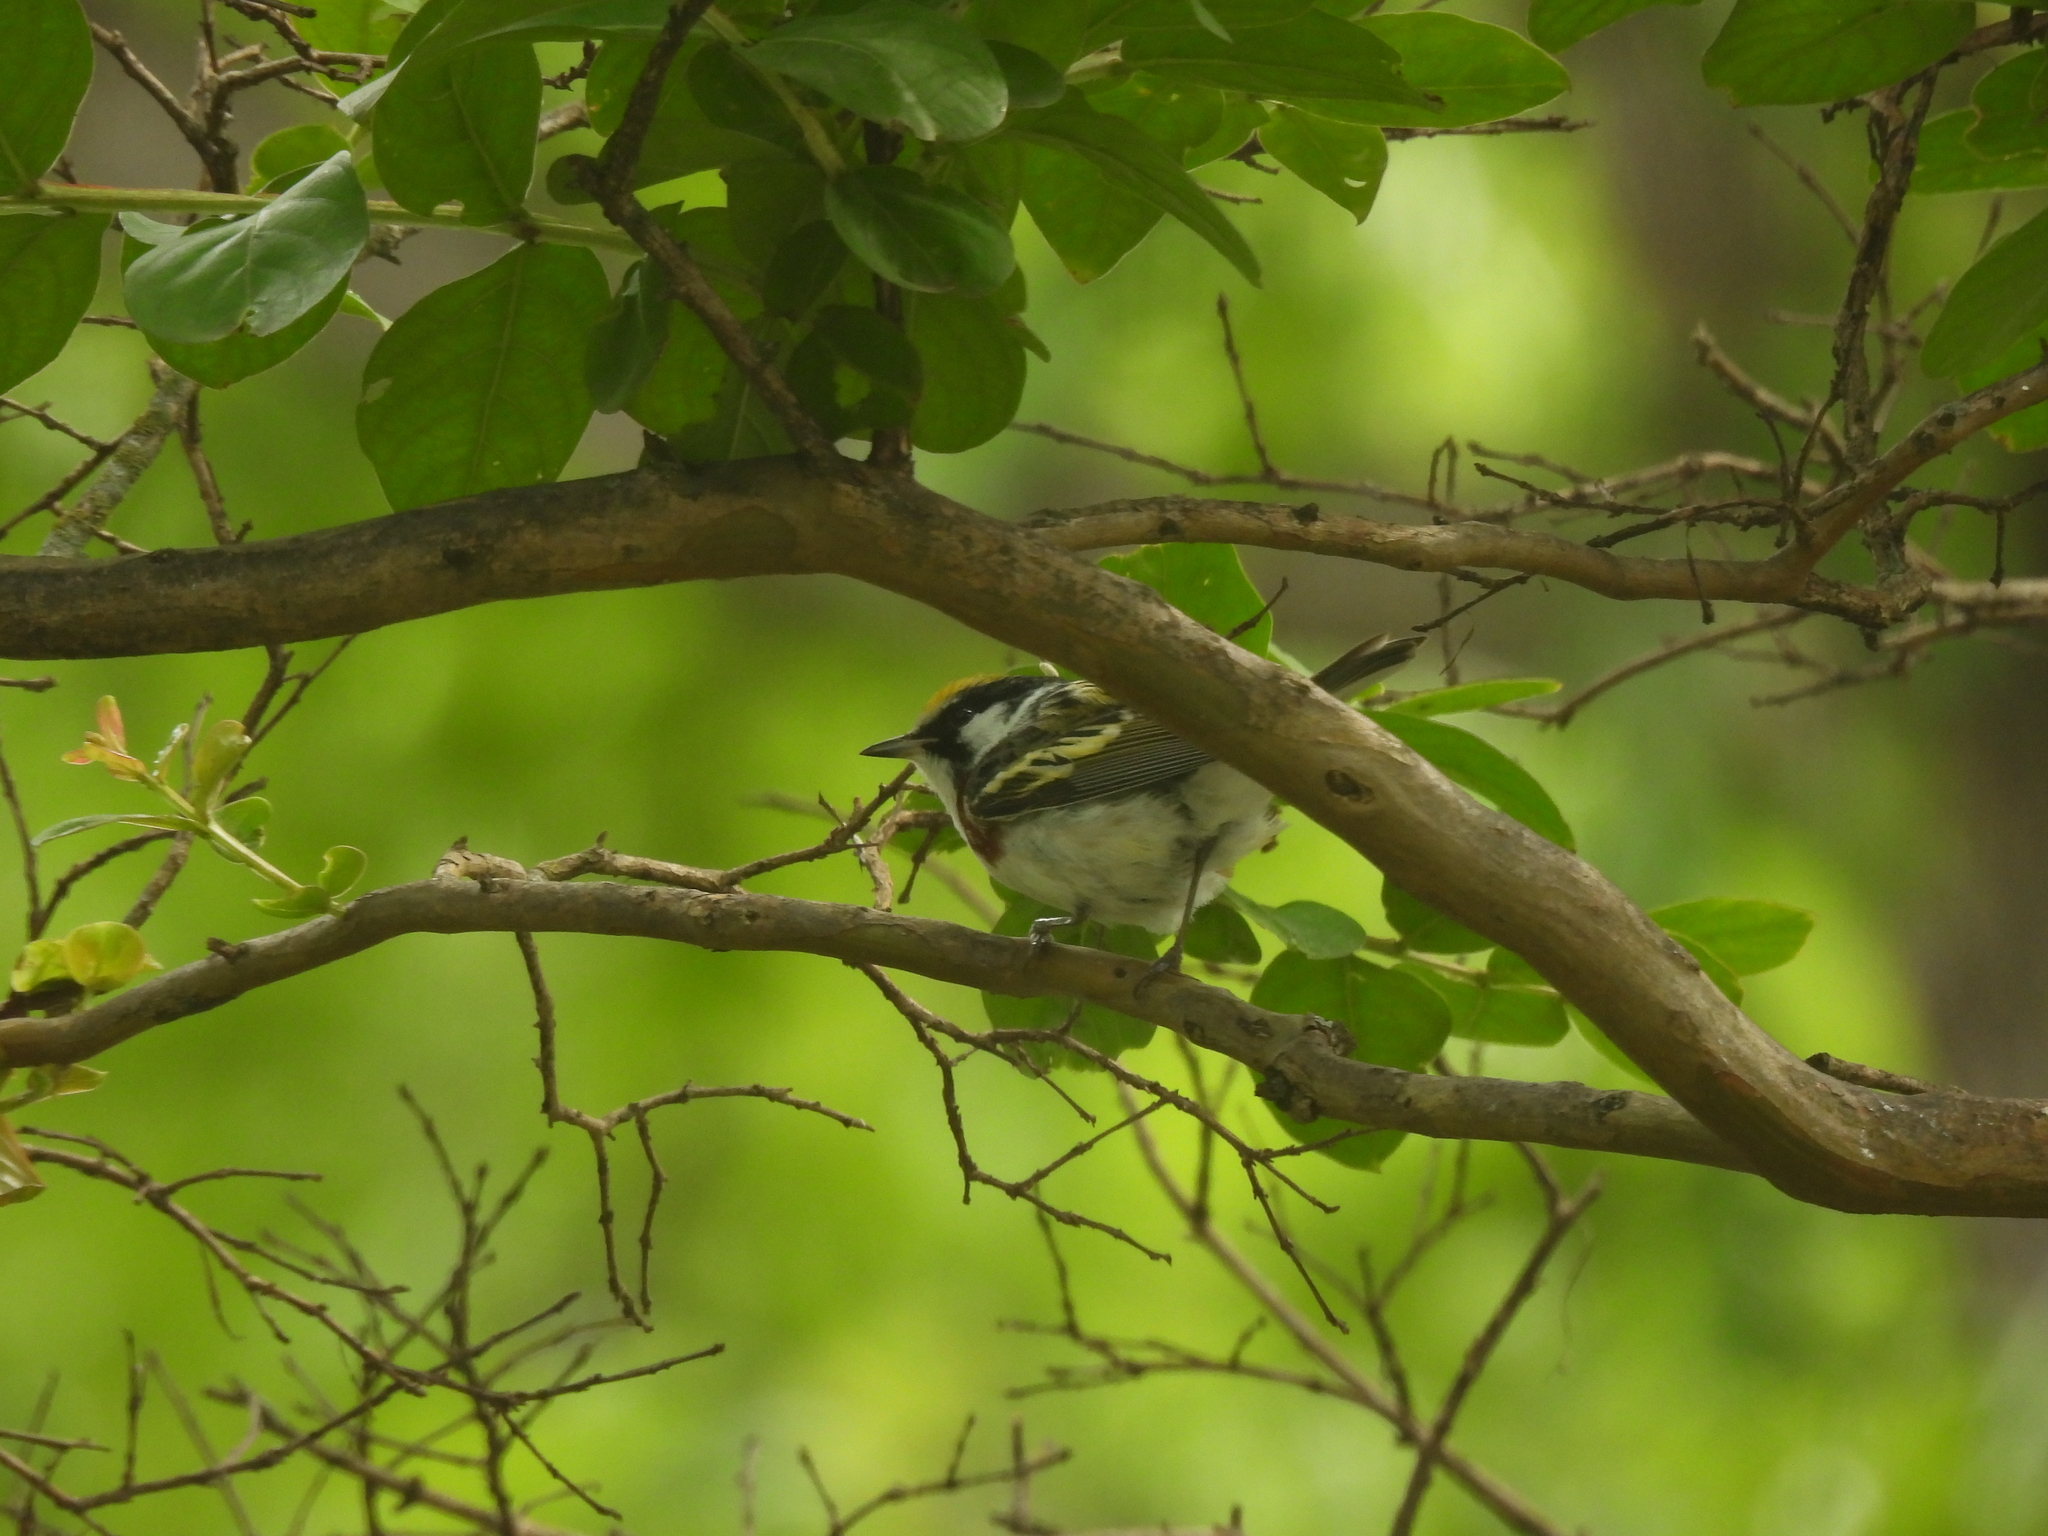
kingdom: Animalia
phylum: Chordata
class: Aves
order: Passeriformes
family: Parulidae
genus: Setophaga
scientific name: Setophaga pensylvanica
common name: Chestnut-sided warbler
